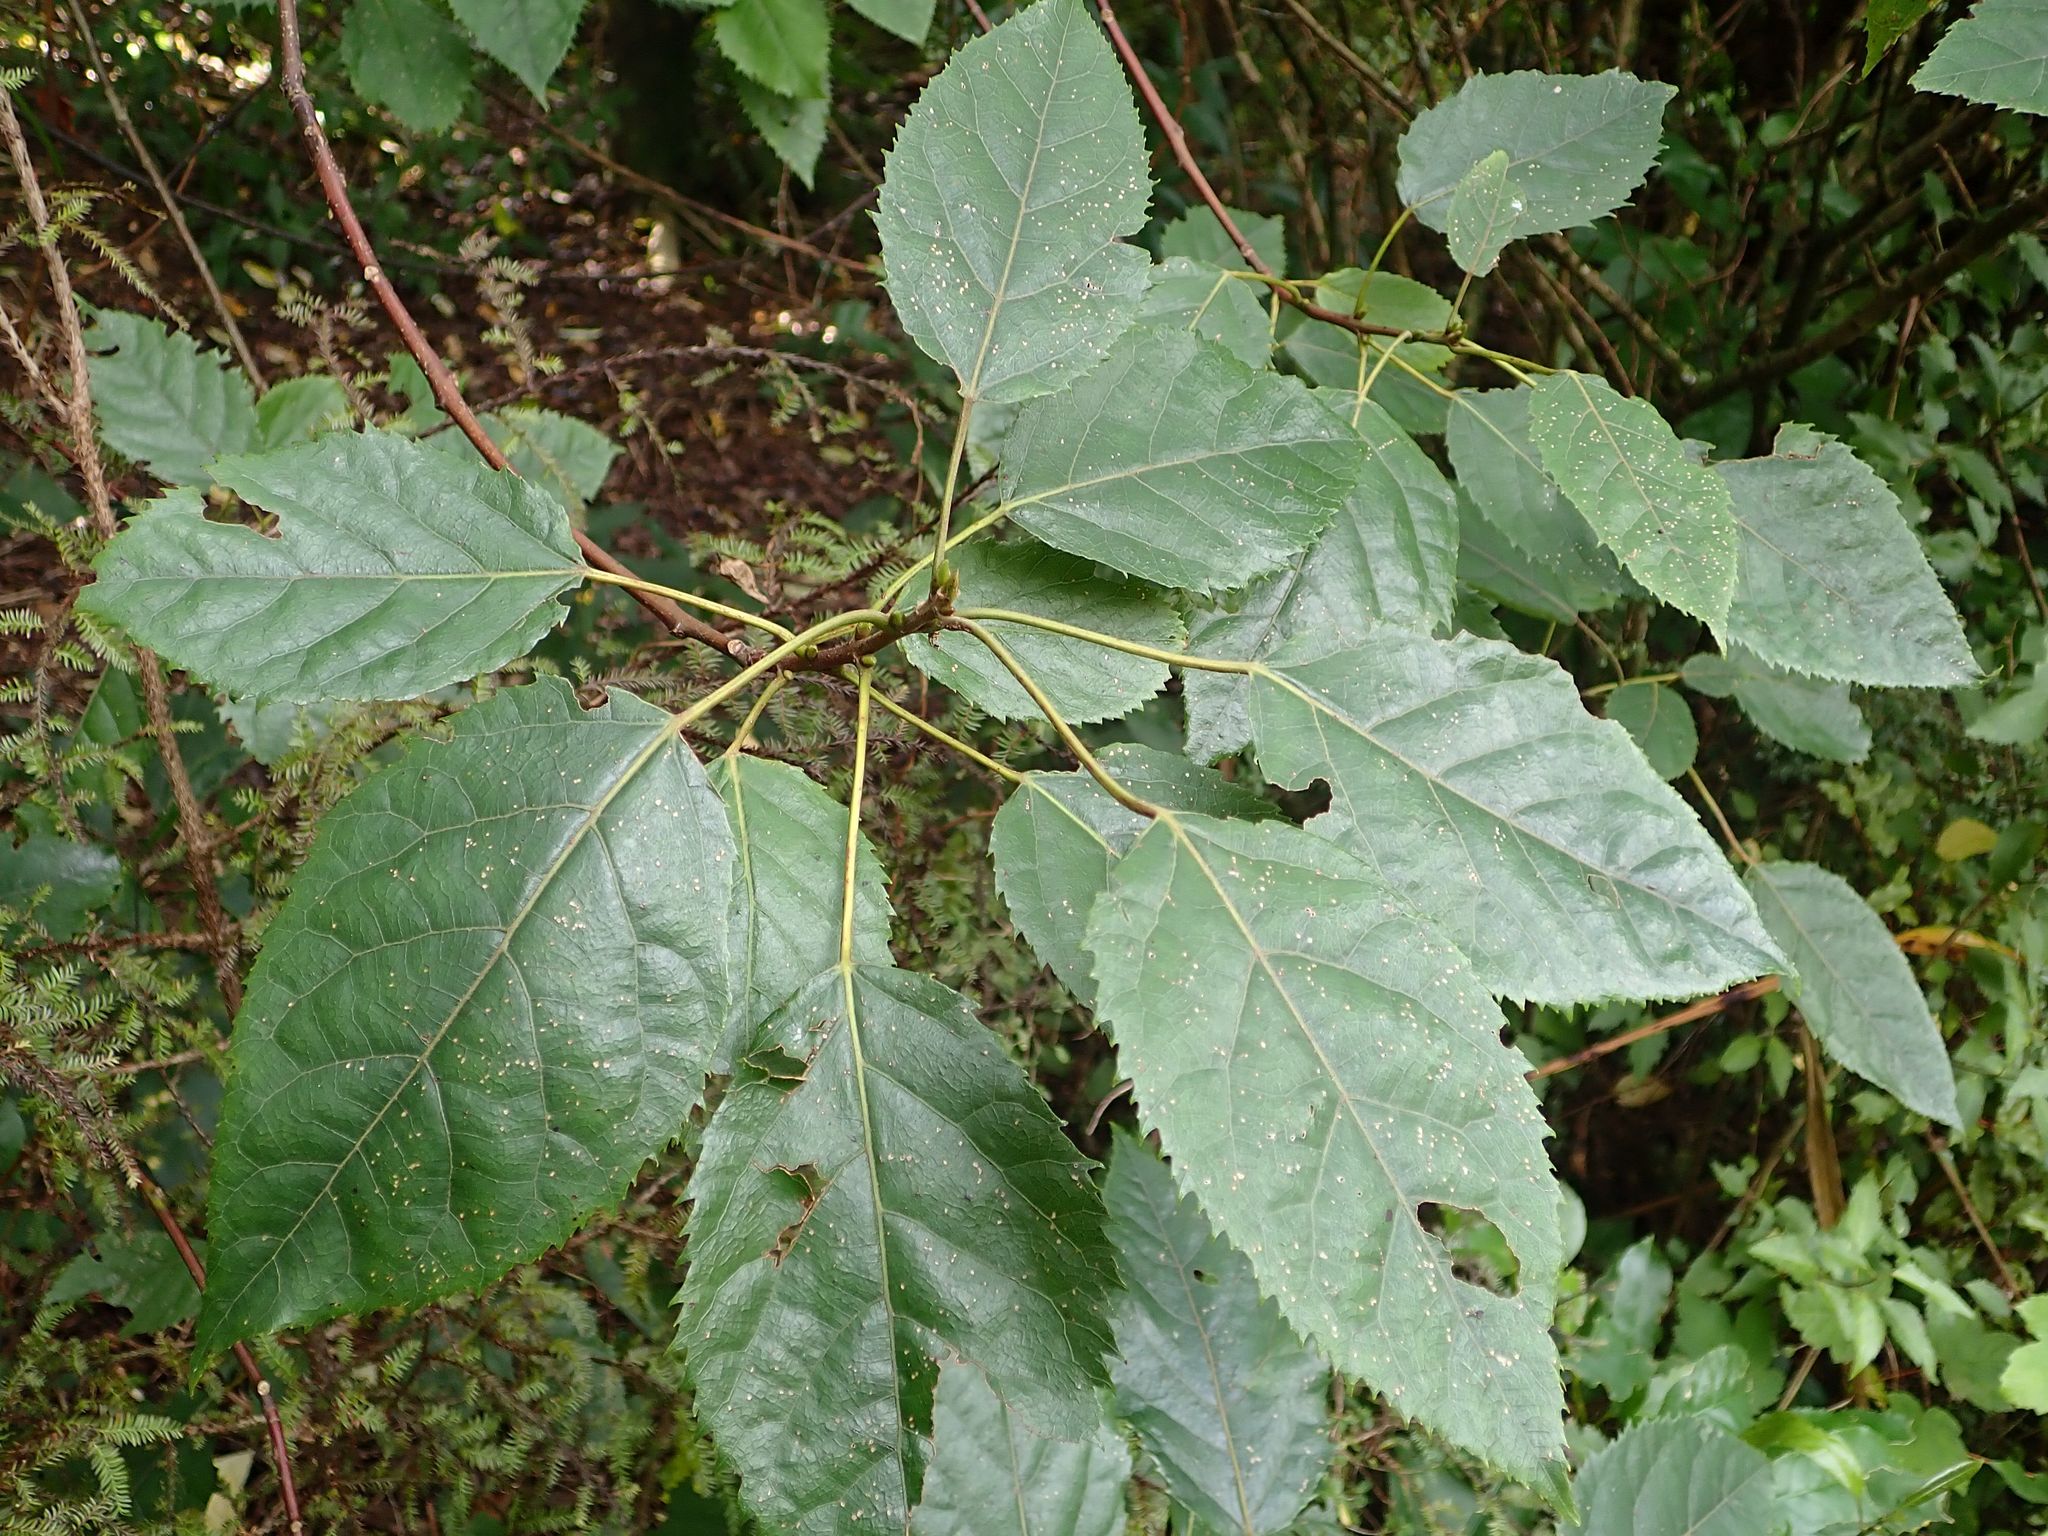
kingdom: Plantae
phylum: Tracheophyta
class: Magnoliopsida
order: Oxalidales
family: Elaeocarpaceae
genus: Aristotelia
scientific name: Aristotelia serrata
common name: New zealand wineberry
